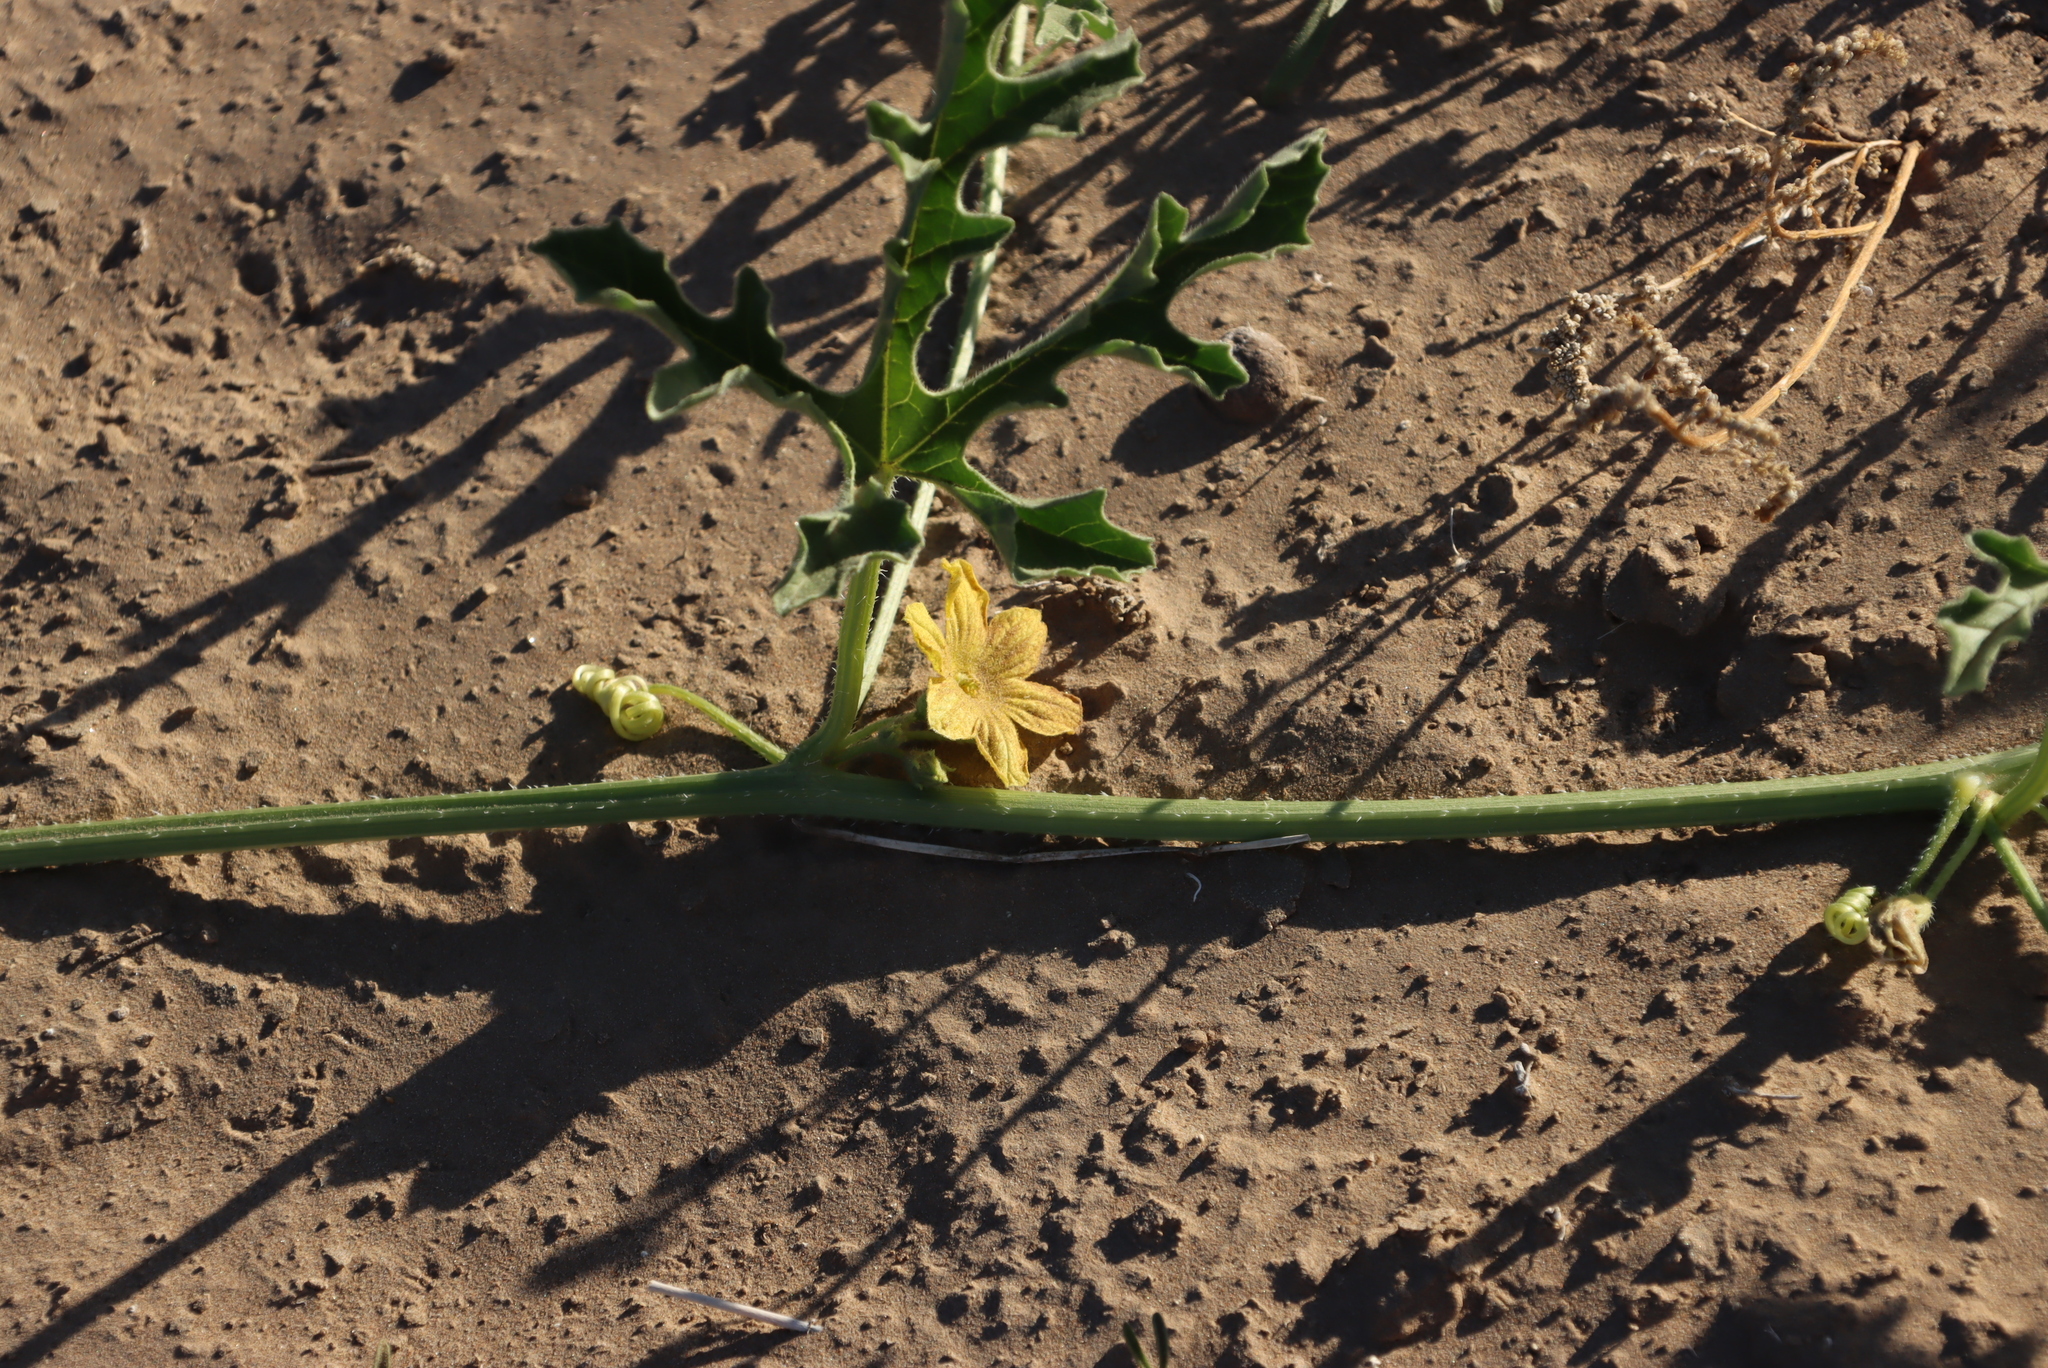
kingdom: Plantae
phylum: Tracheophyta
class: Magnoliopsida
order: Cucurbitales
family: Cucurbitaceae
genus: Cucumis
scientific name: Cucumis africanus
